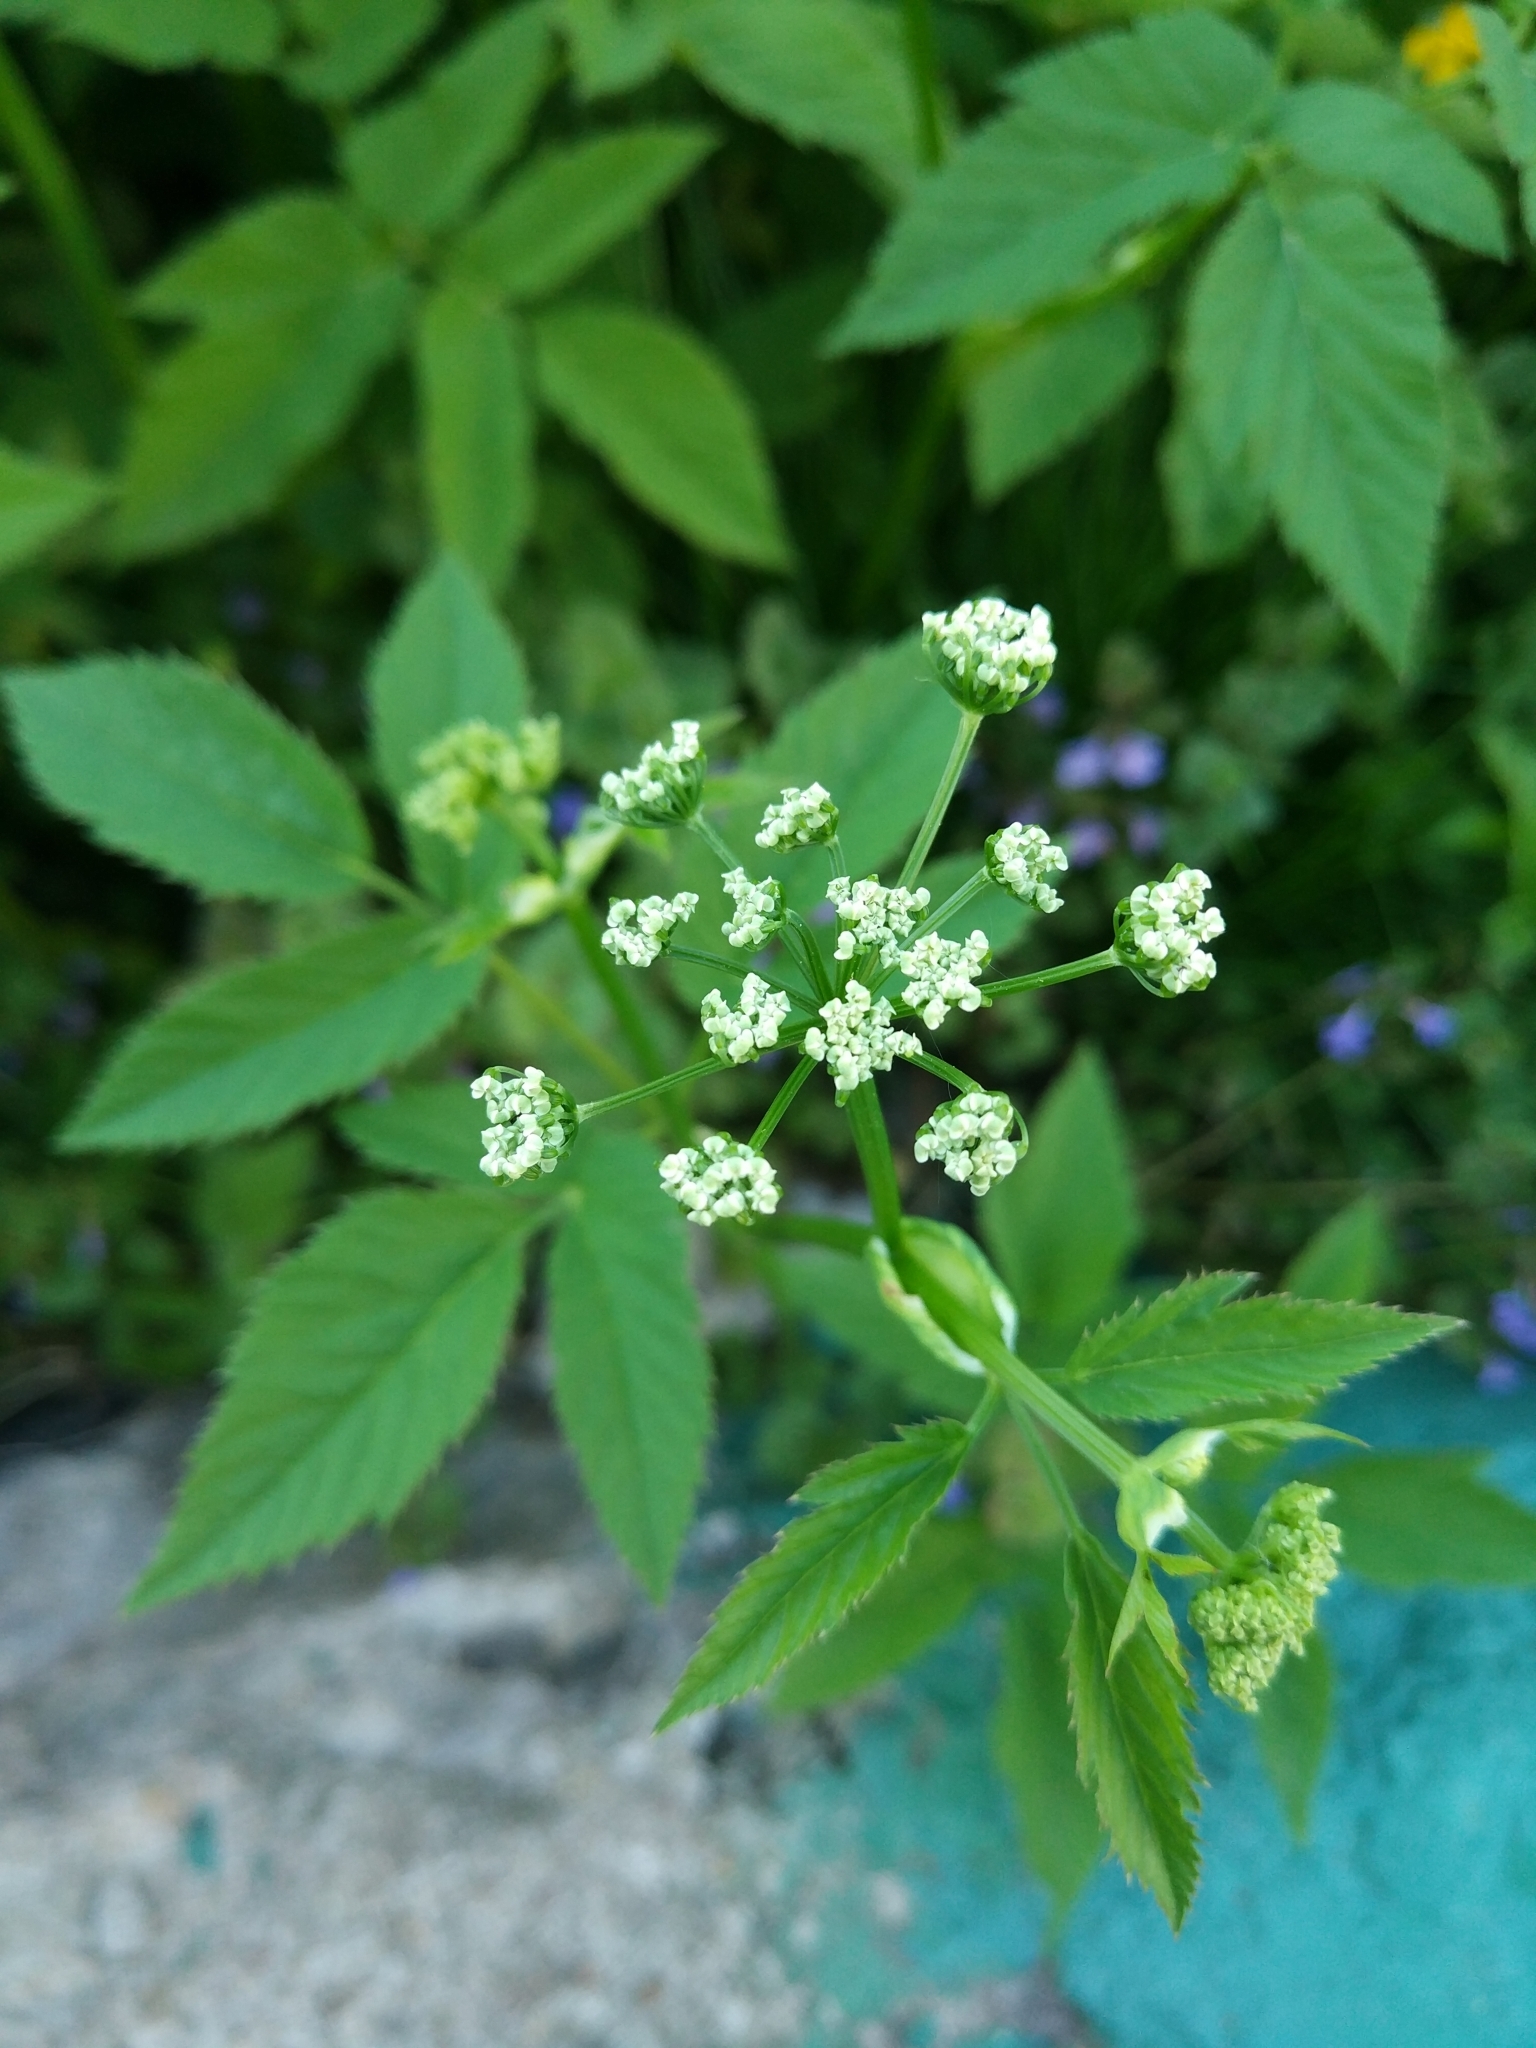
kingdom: Plantae
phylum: Tracheophyta
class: Magnoliopsida
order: Apiales
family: Apiaceae
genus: Aegopodium
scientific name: Aegopodium podagraria
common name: Ground-elder
